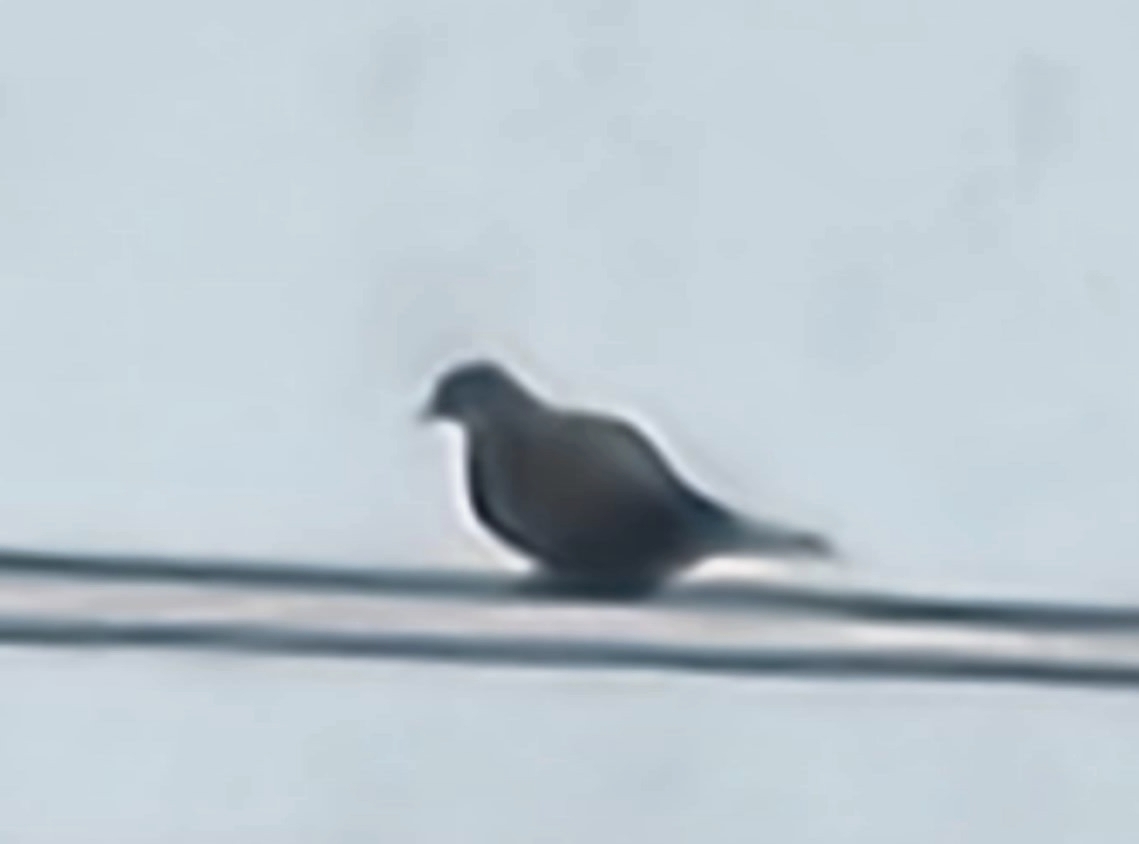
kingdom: Animalia
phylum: Chordata
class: Aves
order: Columbiformes
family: Columbidae
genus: Streptopelia
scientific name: Streptopelia decaocto
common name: Eurasian collared dove
